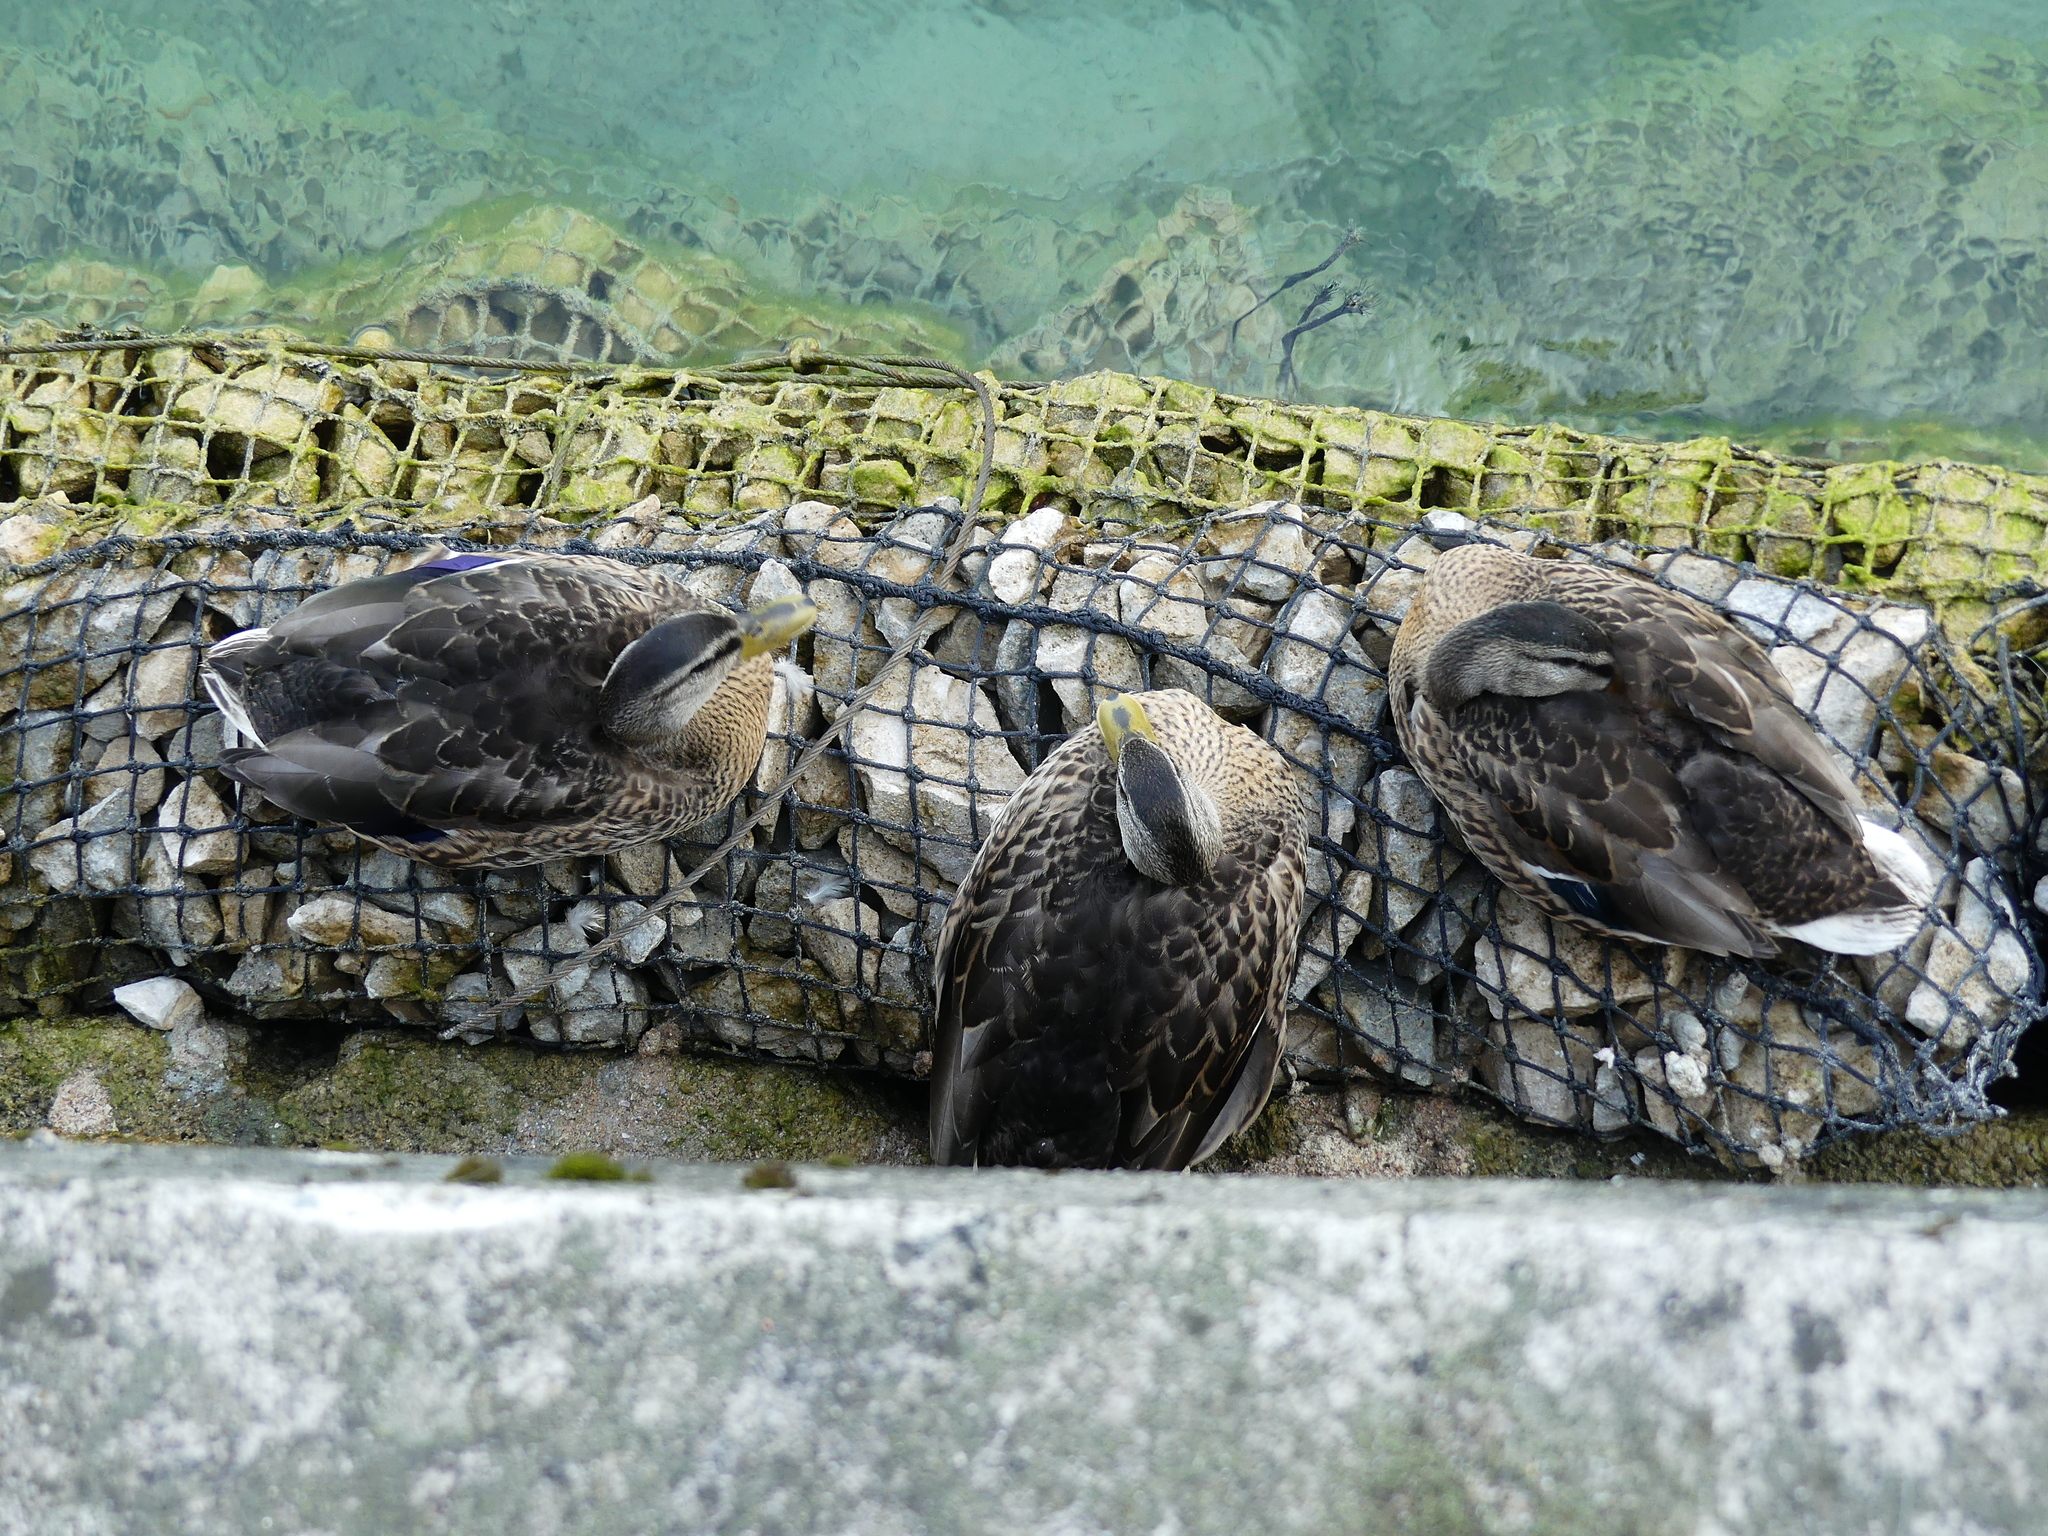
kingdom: Animalia
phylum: Chordata
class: Aves
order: Anseriformes
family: Anatidae
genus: Anas
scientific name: Anas platyrhynchos
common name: Mallard
